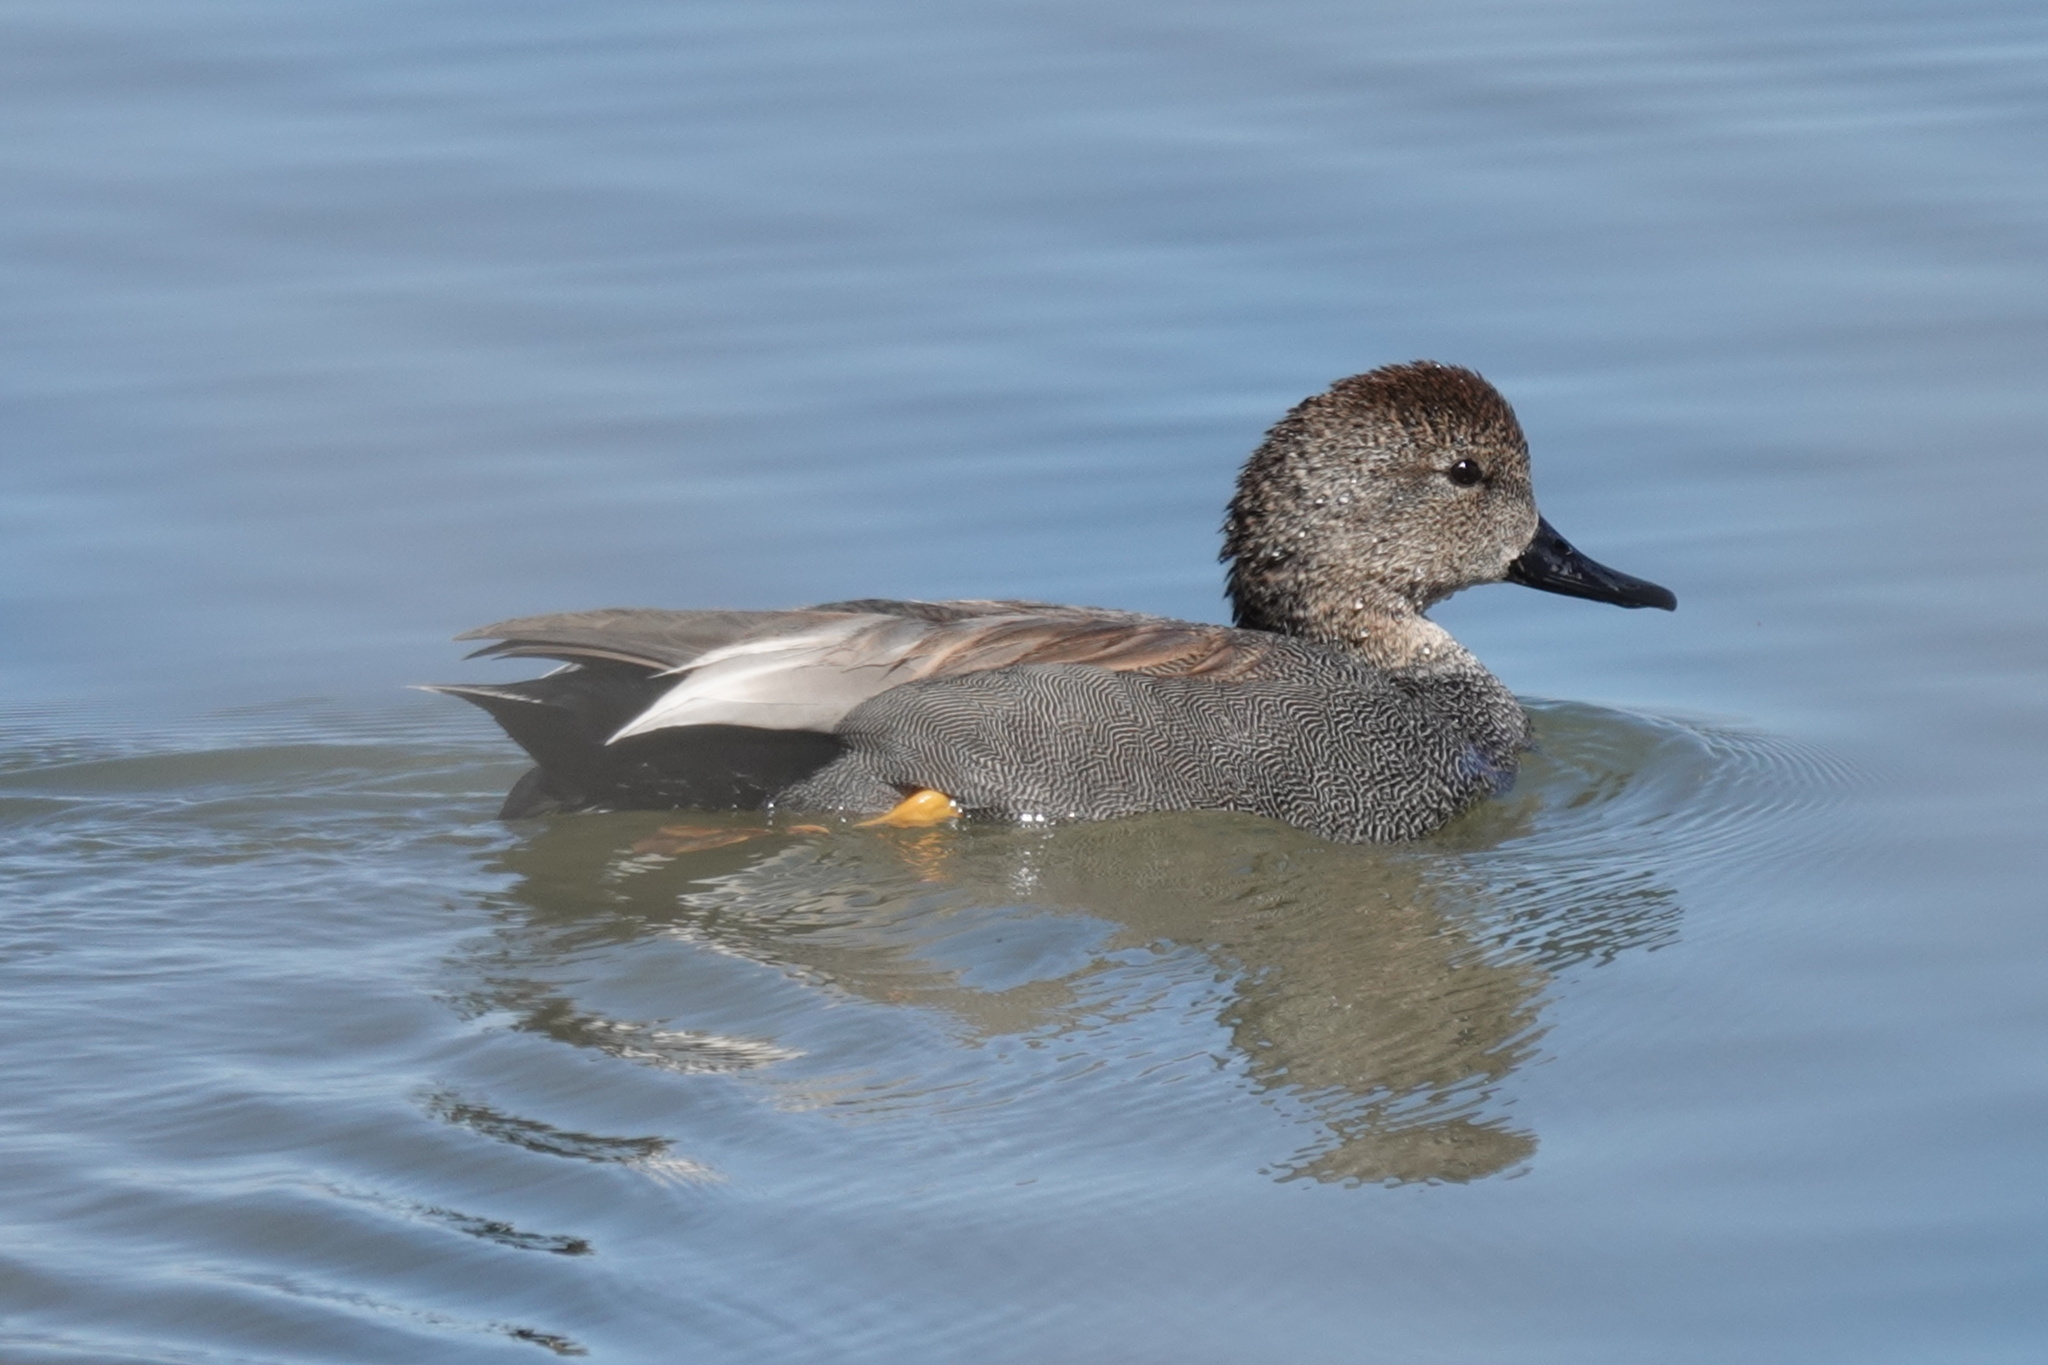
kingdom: Animalia
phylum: Chordata
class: Aves
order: Anseriformes
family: Anatidae
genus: Mareca
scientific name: Mareca strepera
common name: Gadwall
